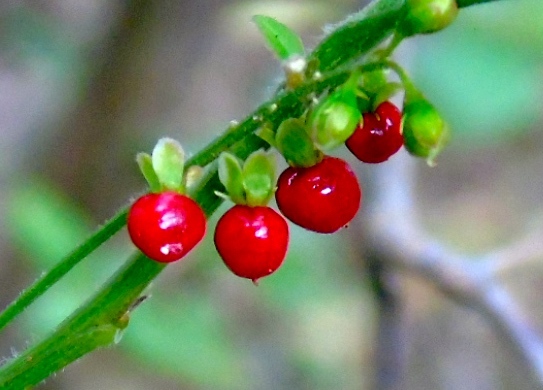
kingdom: Plantae
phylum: Tracheophyta
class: Magnoliopsida
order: Caryophyllales
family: Phytolaccaceae
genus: Rivina
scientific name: Rivina humilis
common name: Rougeplant
